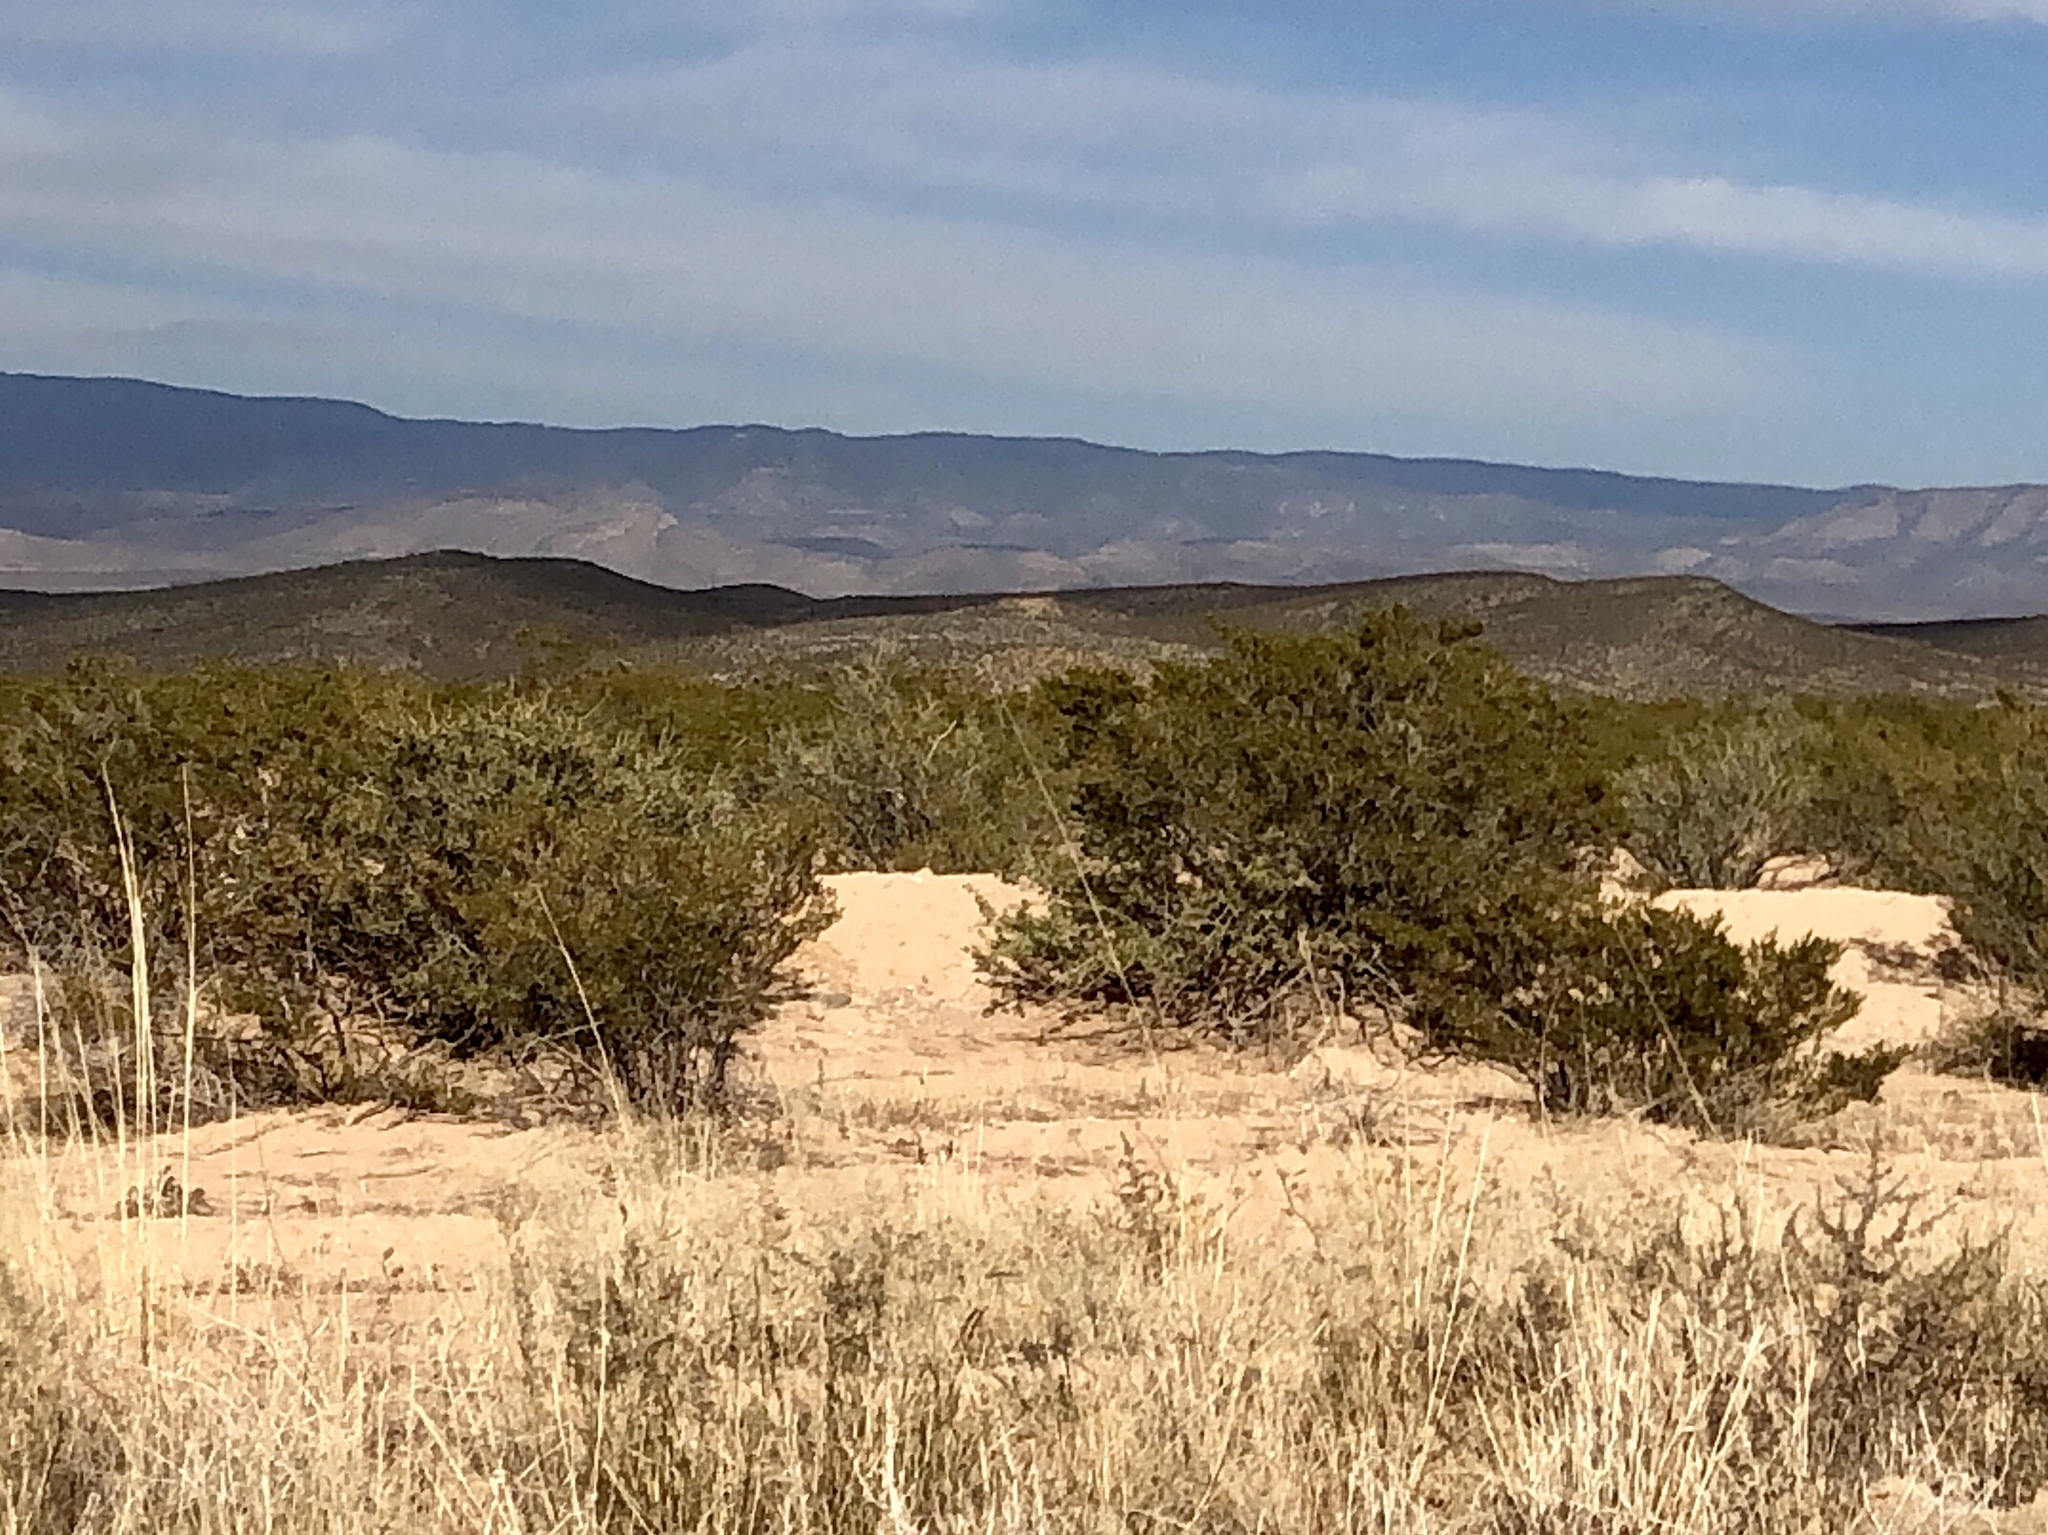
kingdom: Plantae
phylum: Tracheophyta
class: Magnoliopsida
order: Zygophyllales
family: Zygophyllaceae
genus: Larrea
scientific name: Larrea tridentata
